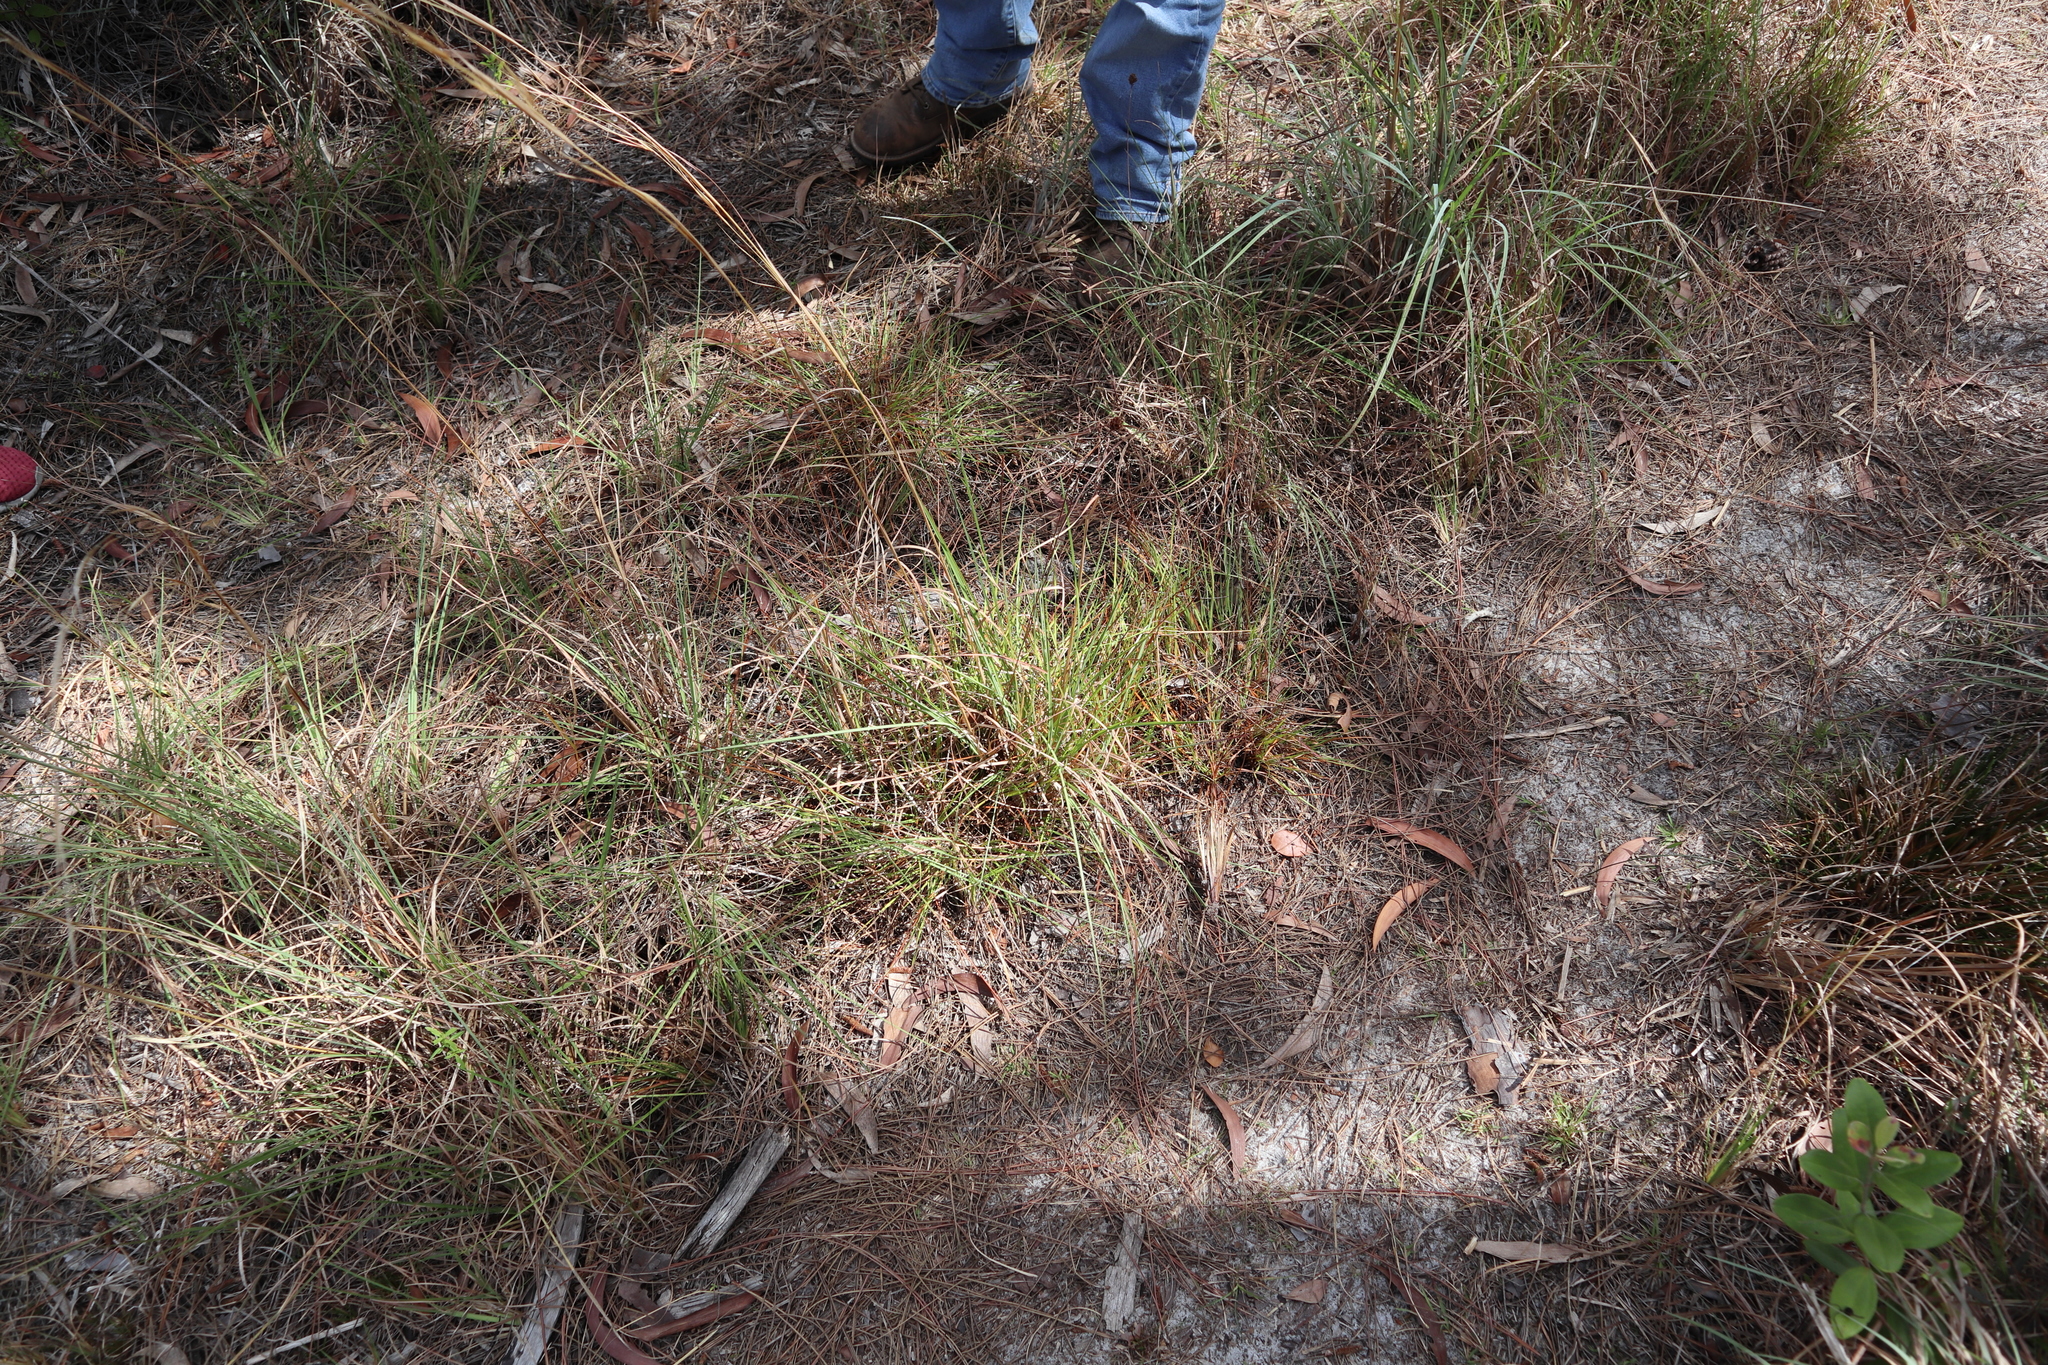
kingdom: Plantae
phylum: Tracheophyta
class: Liliopsida
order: Poales
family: Xyridaceae
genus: Xyris
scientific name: Xyris elliottii
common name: Elliot's yelloweyed grass
